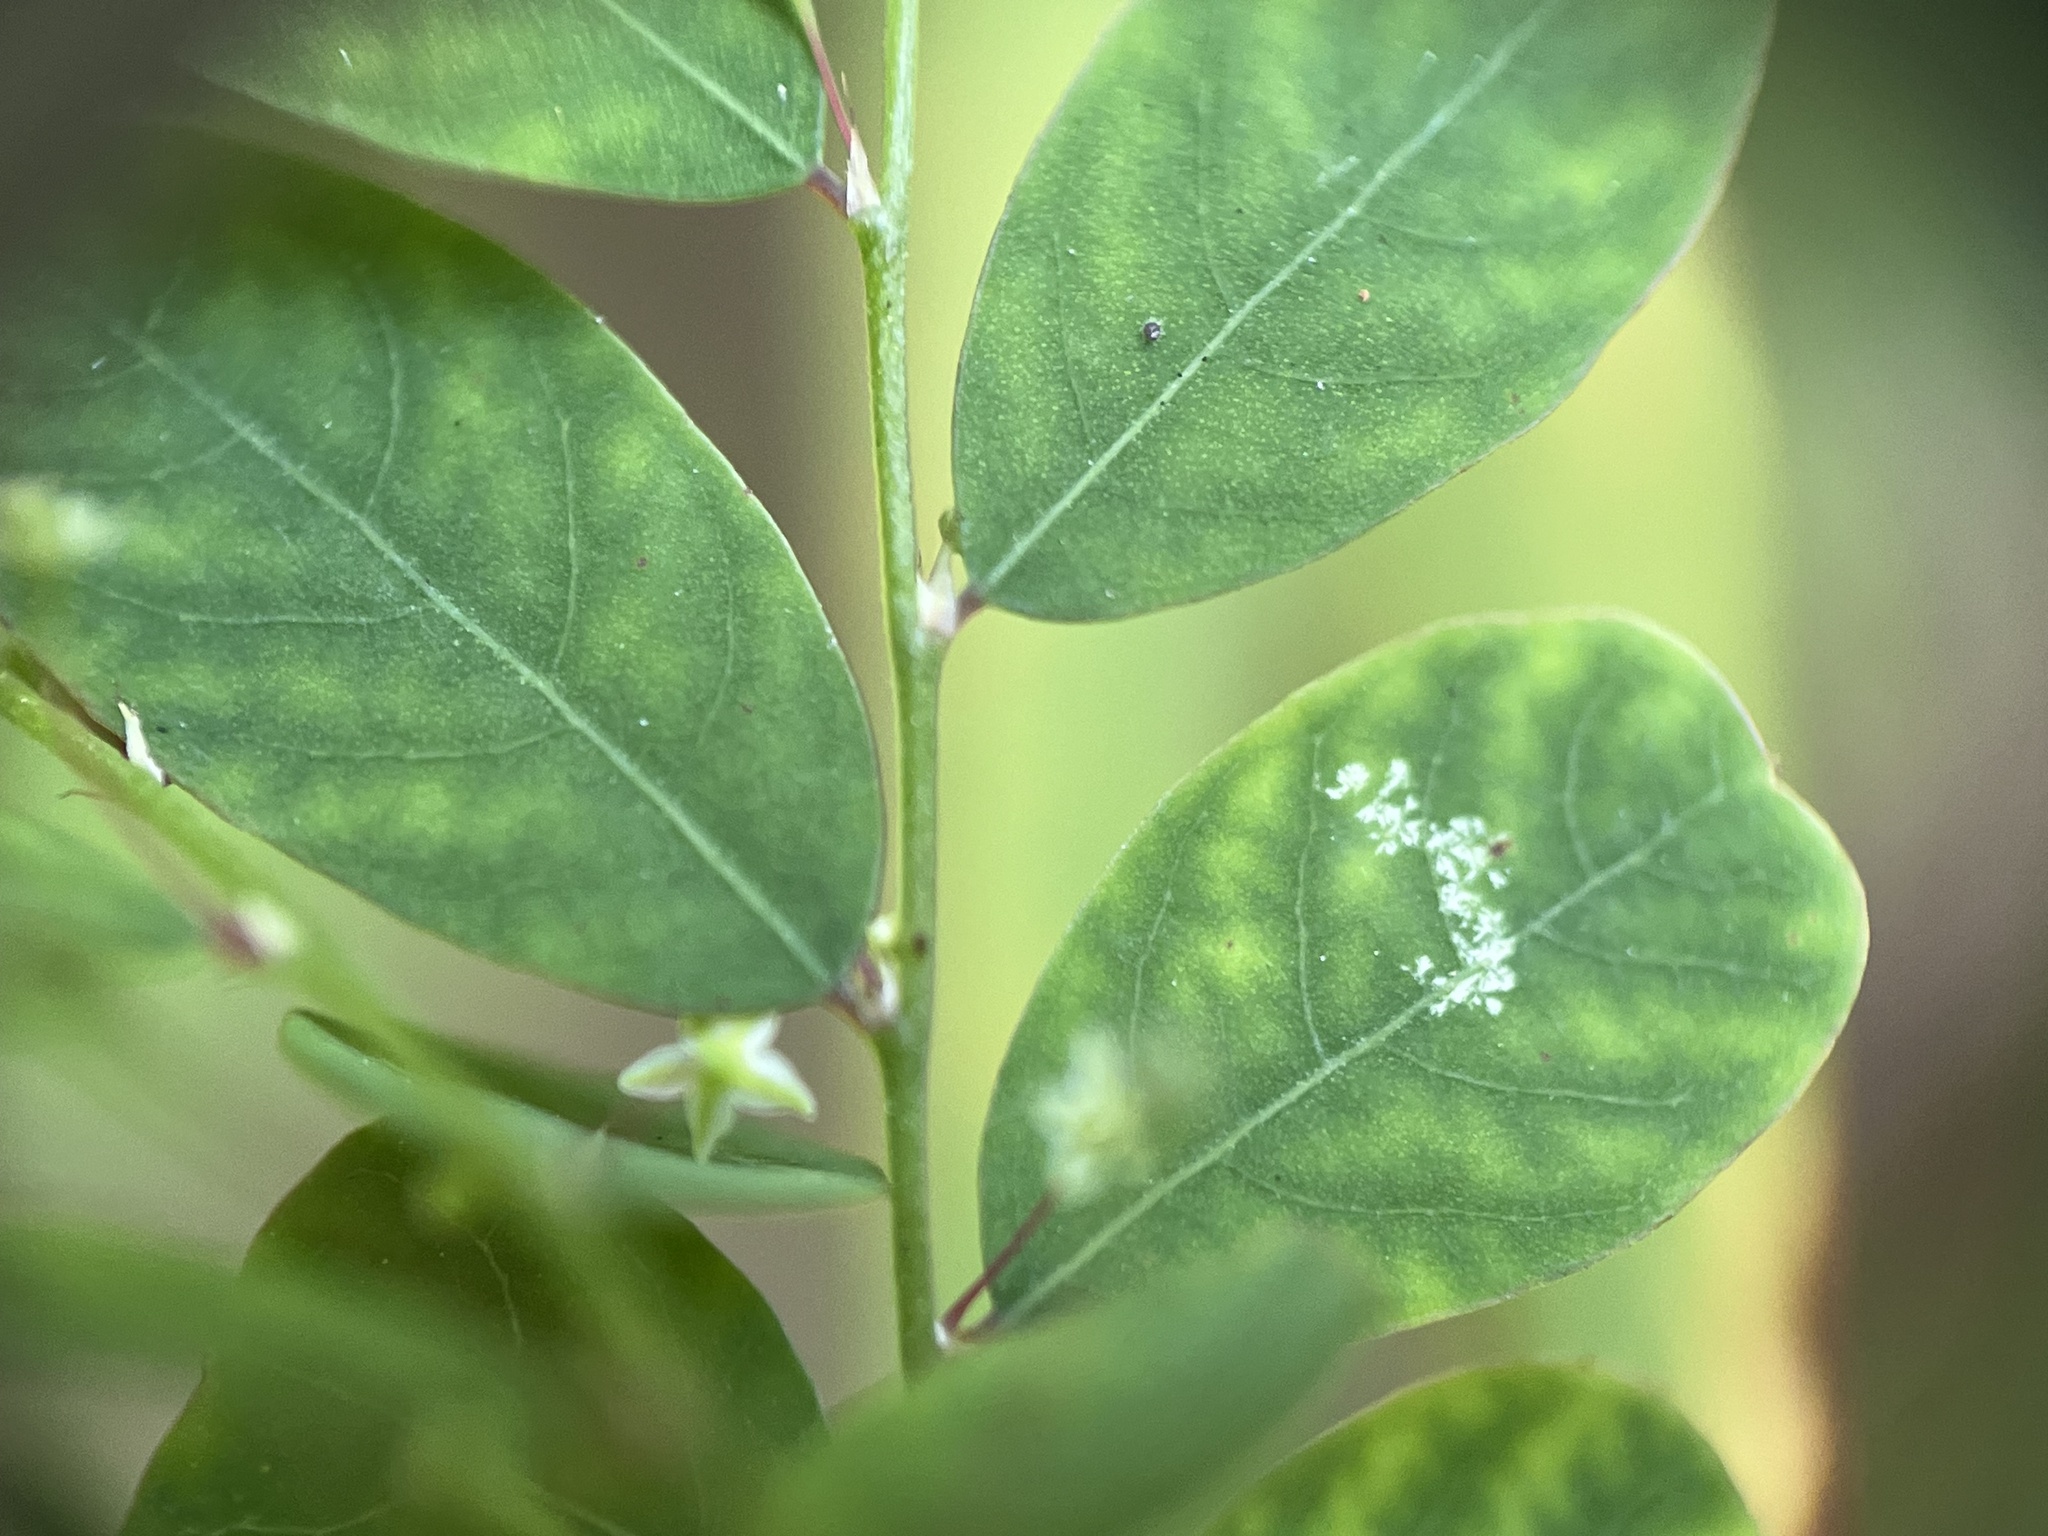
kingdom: Plantae
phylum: Tracheophyta
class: Magnoliopsida
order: Malpighiales
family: Phyllanthaceae
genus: Phyllanthus
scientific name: Phyllanthus tenellus
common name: Mascarene island leaf-flower
